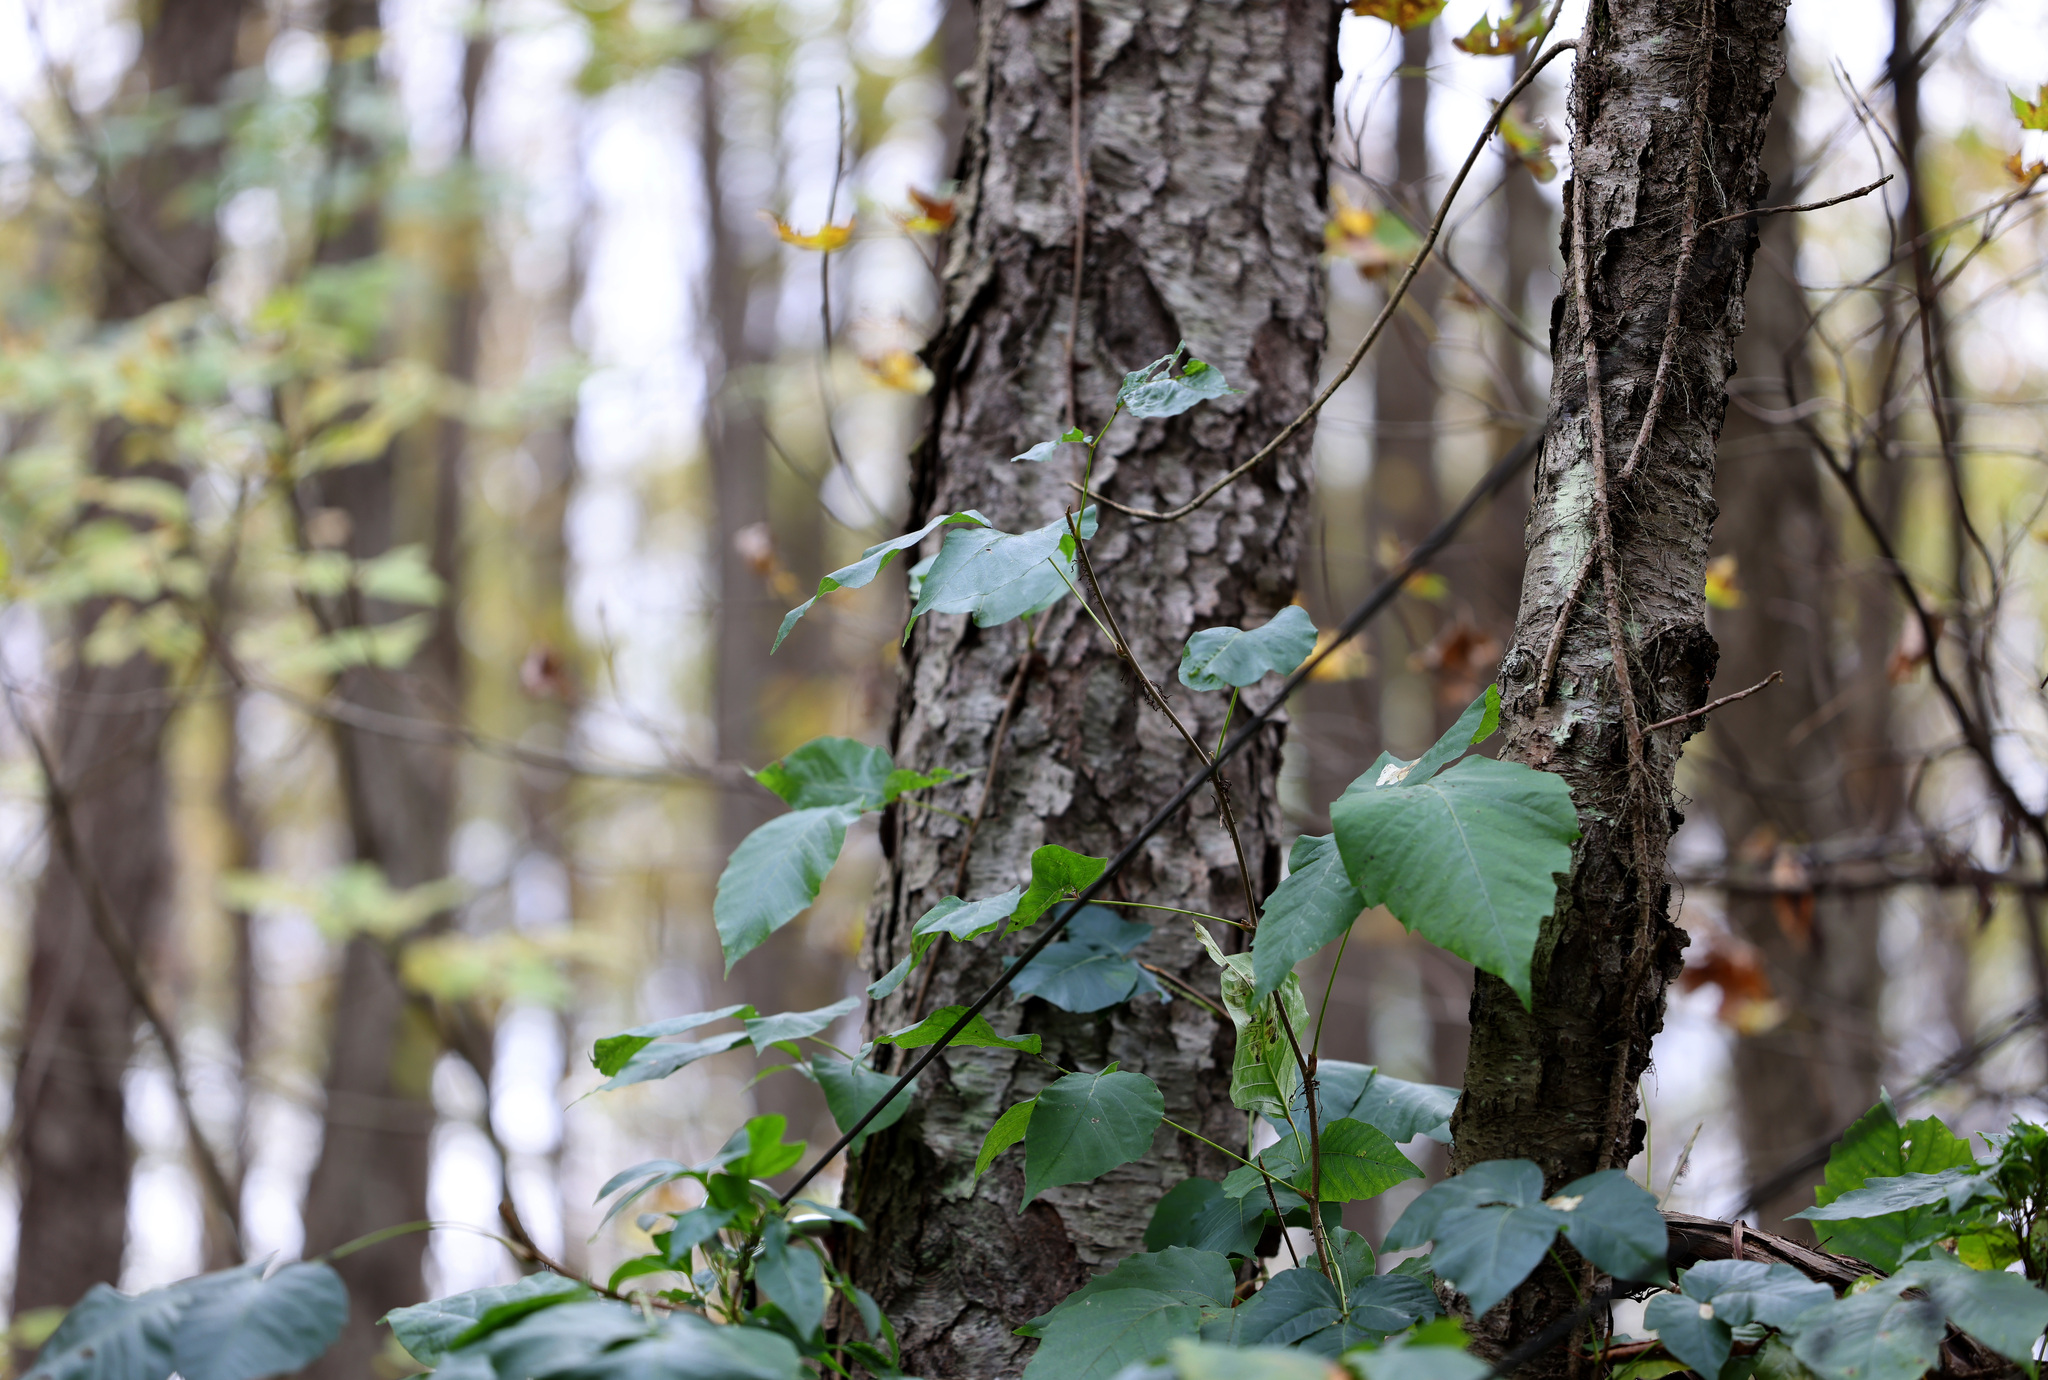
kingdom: Plantae
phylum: Tracheophyta
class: Magnoliopsida
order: Sapindales
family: Anacardiaceae
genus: Toxicodendron
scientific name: Toxicodendron radicans
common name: Poison ivy
